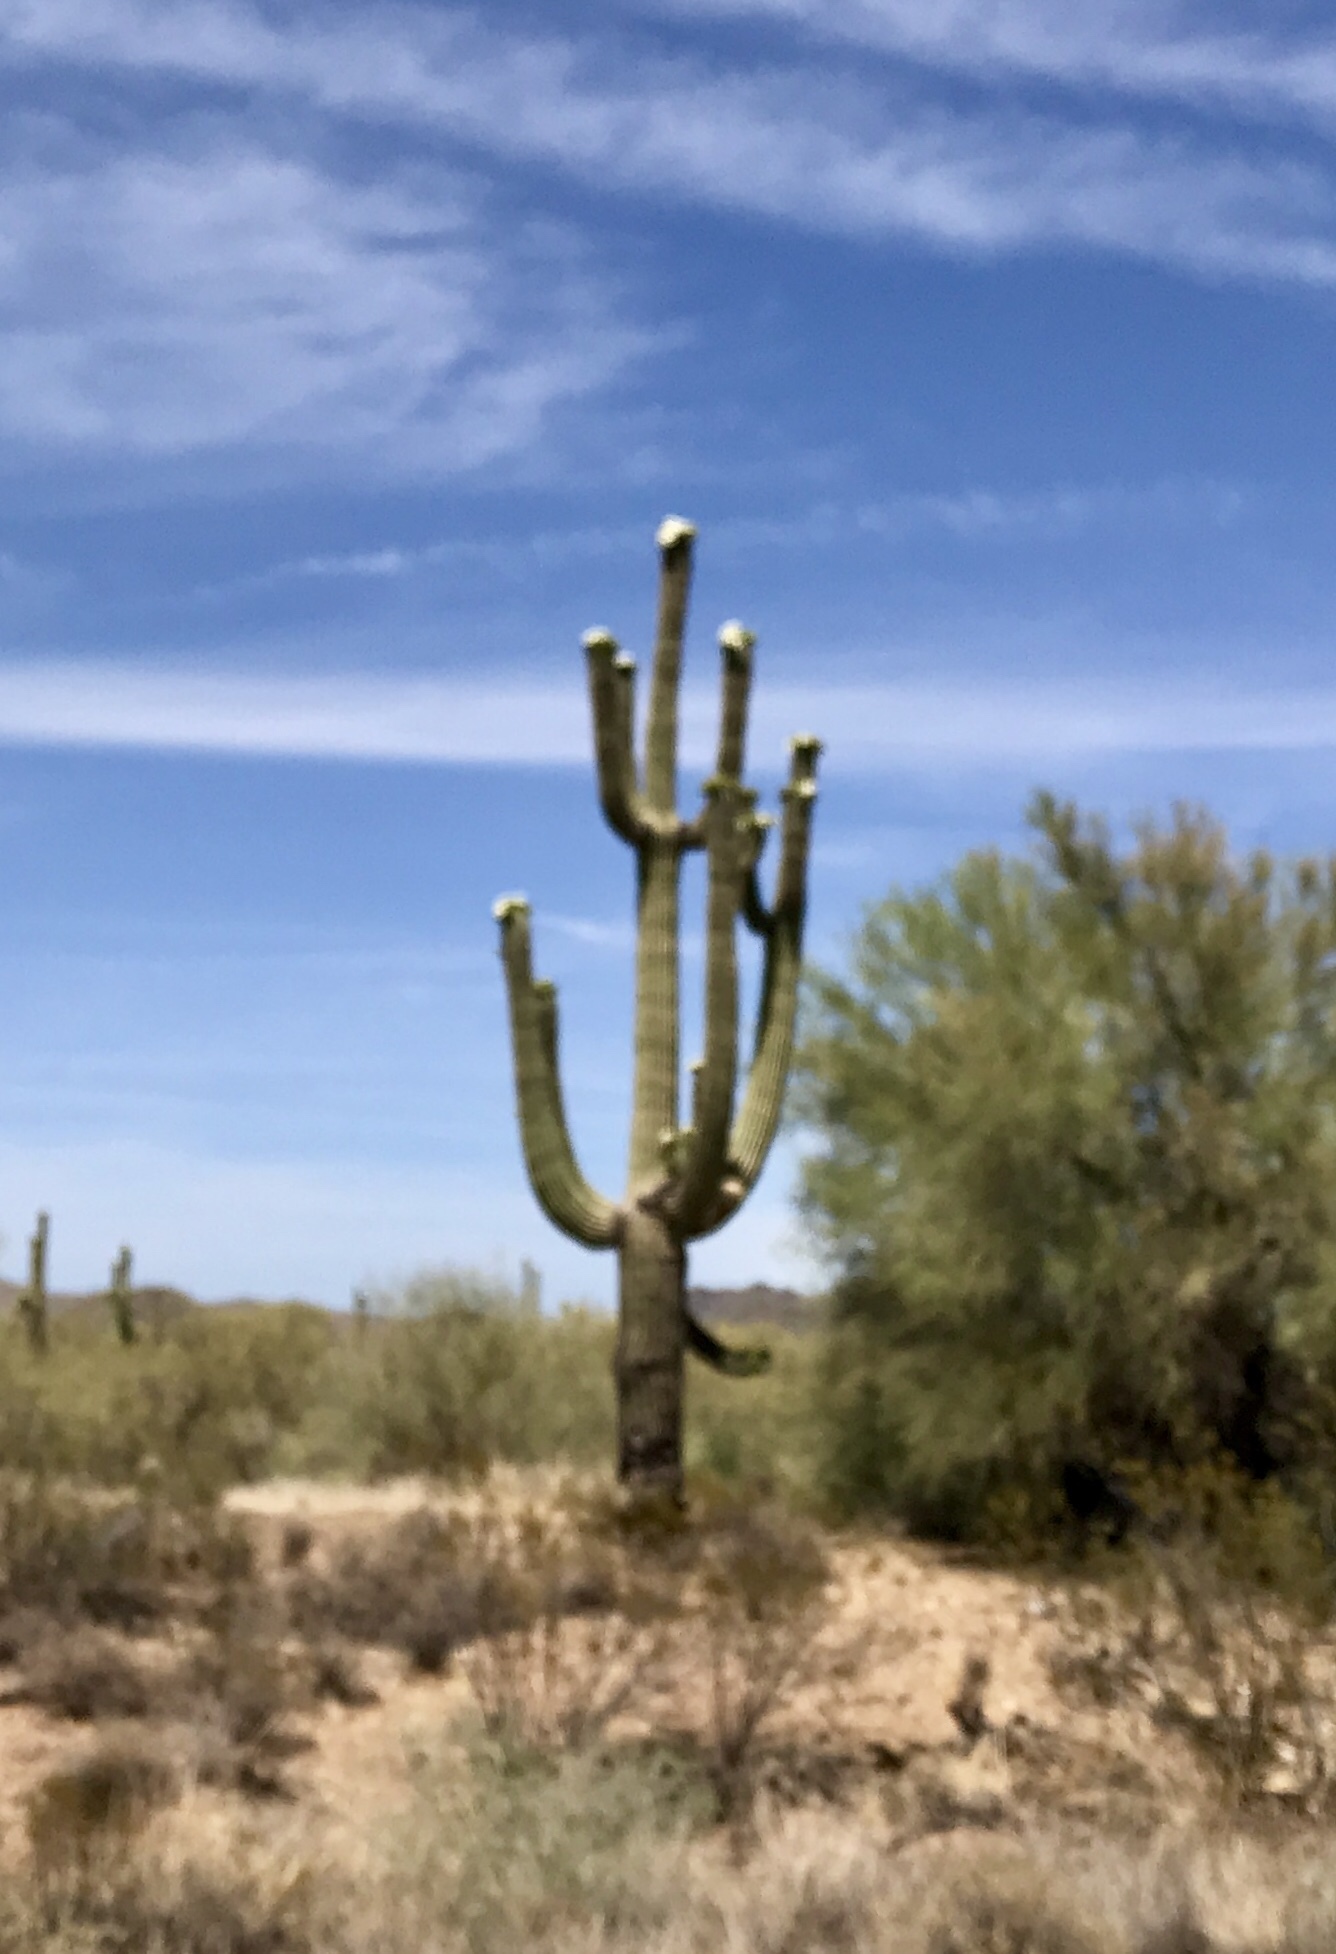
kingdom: Plantae
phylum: Tracheophyta
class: Magnoliopsida
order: Caryophyllales
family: Cactaceae
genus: Carnegiea
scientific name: Carnegiea gigantea
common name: Saguaro
